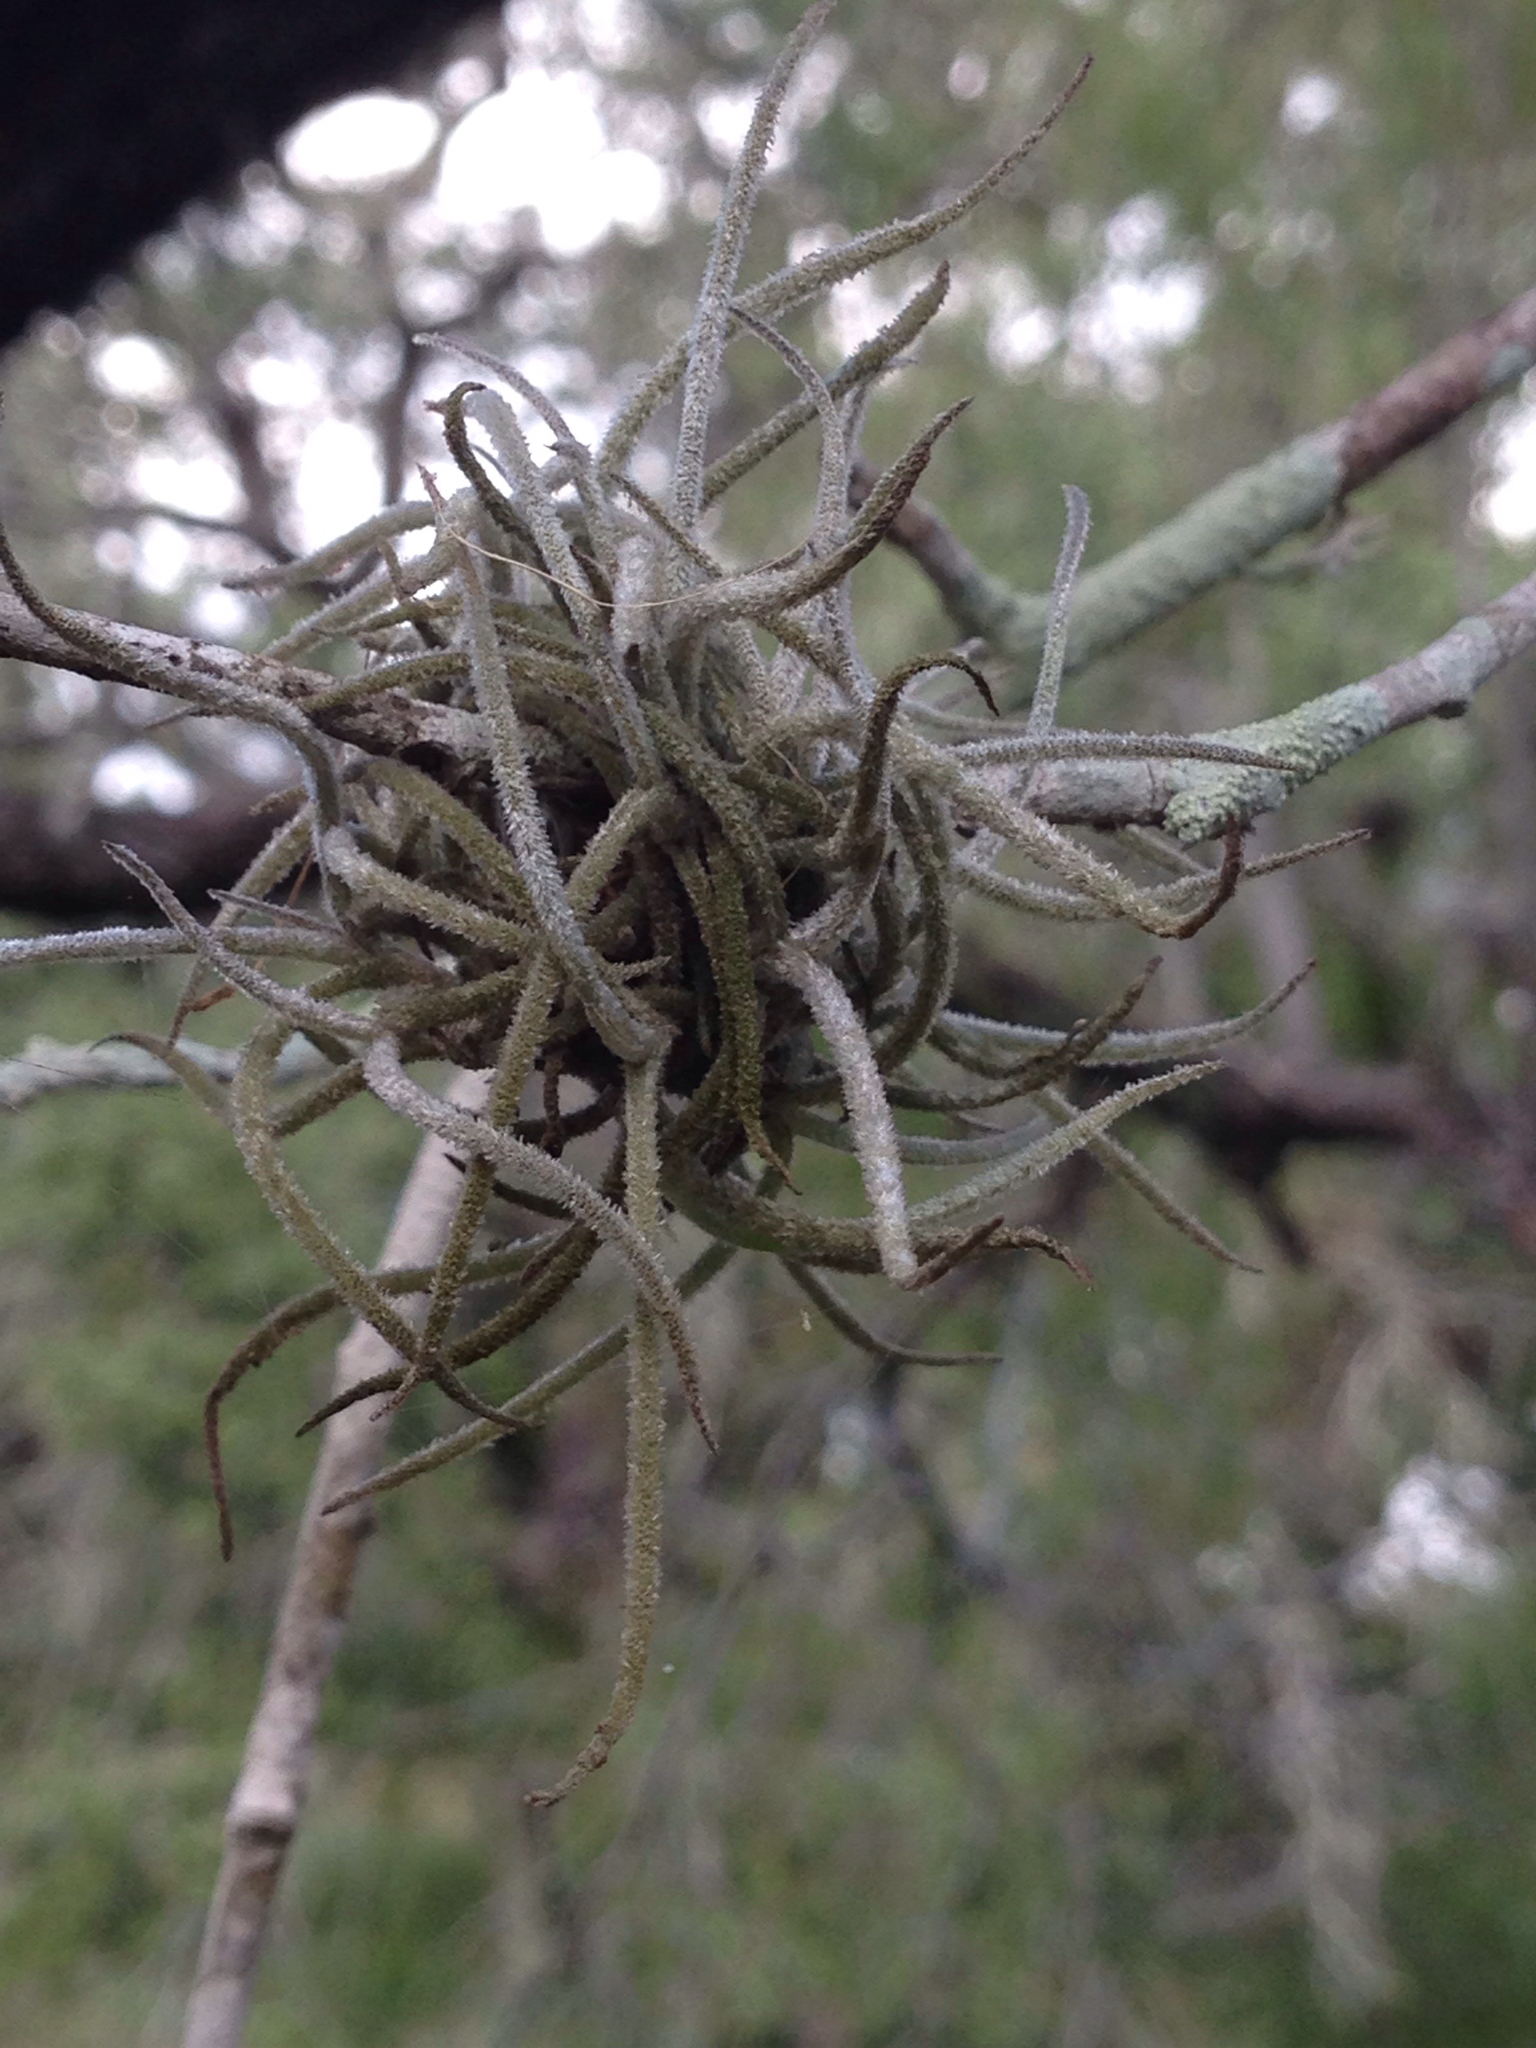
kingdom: Plantae
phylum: Tracheophyta
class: Liliopsida
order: Poales
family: Bromeliaceae
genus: Tillandsia
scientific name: Tillandsia recurvata
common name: Small ballmoss
